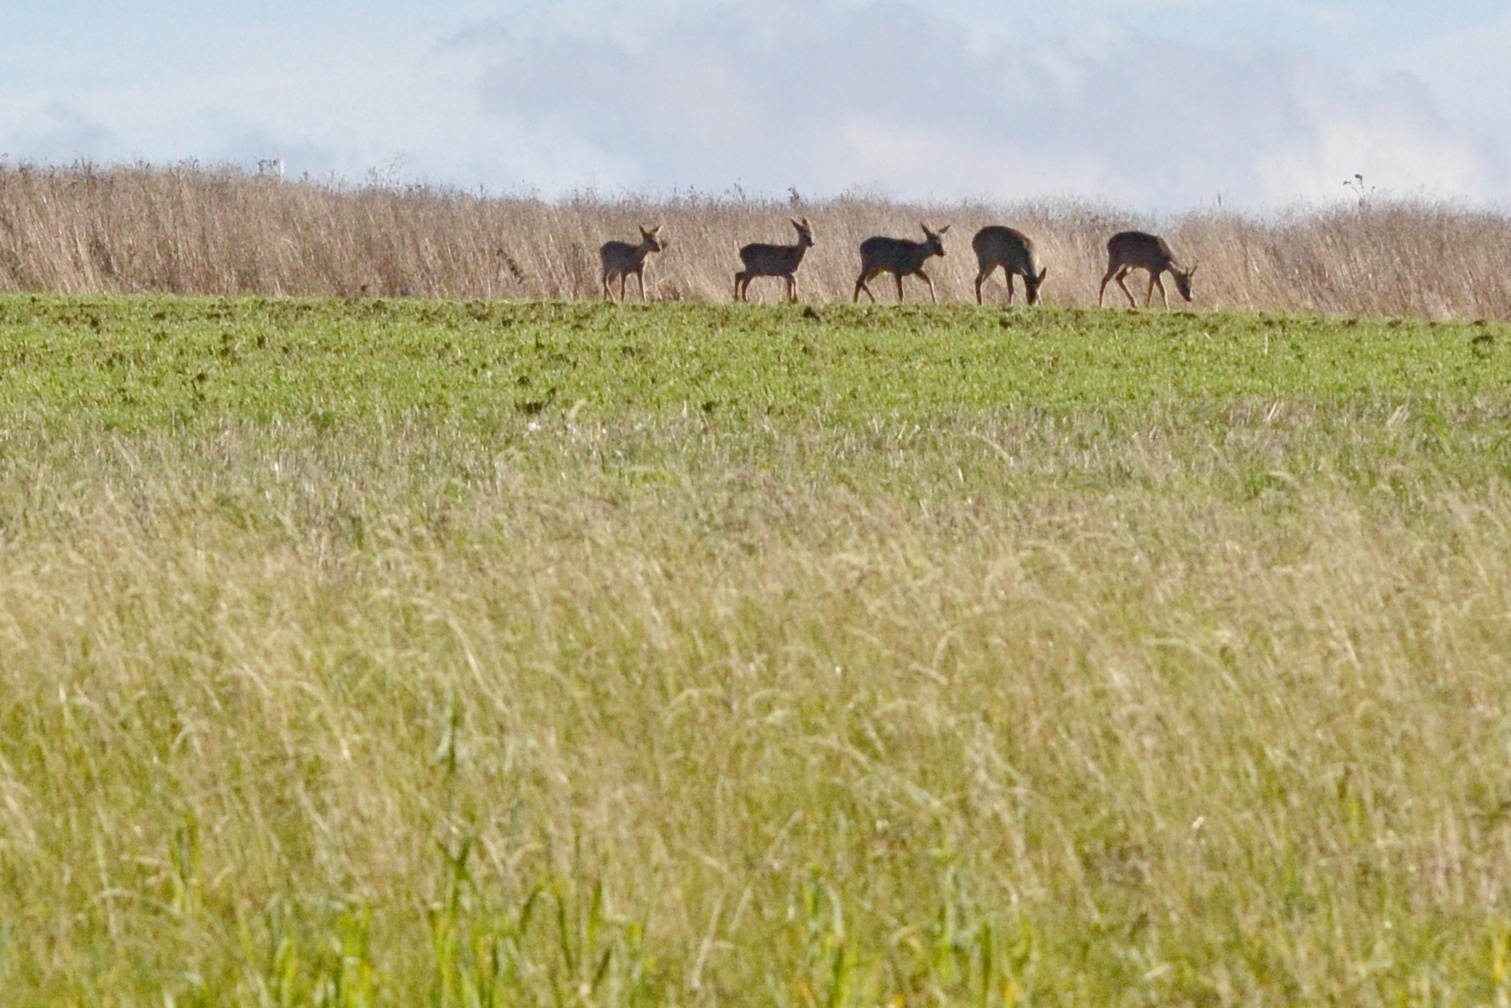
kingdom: Animalia
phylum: Chordata
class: Mammalia
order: Artiodactyla
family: Cervidae
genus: Capreolus
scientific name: Capreolus capreolus
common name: Western roe deer
